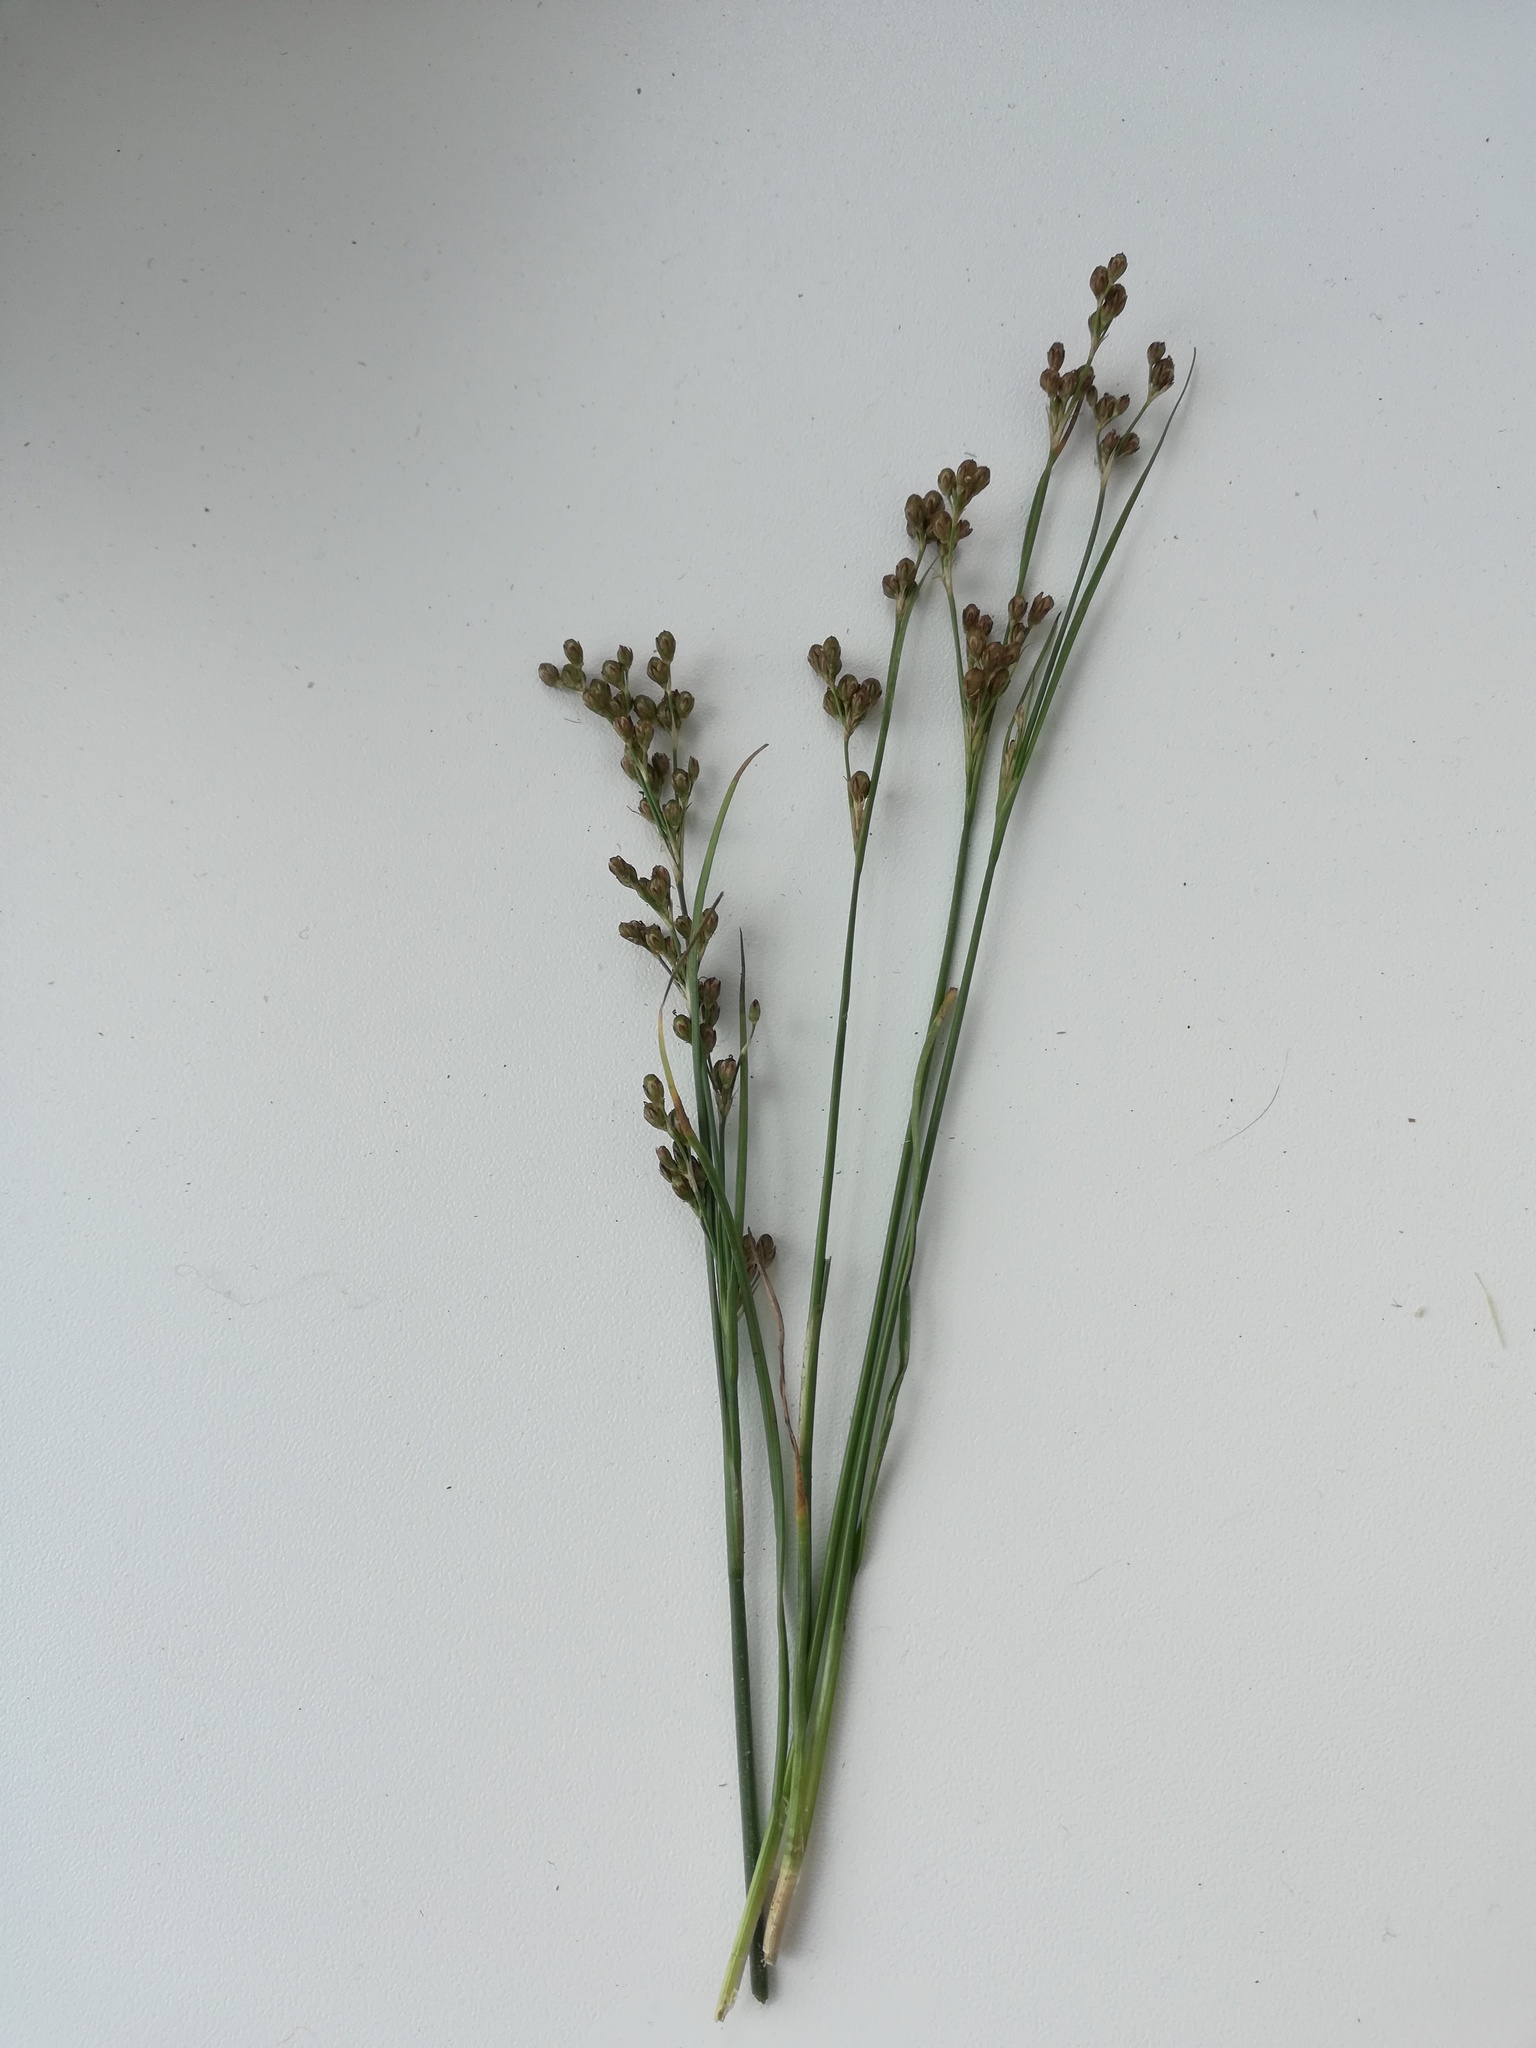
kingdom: Plantae
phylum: Tracheophyta
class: Liliopsida
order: Poales
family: Juncaceae
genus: Juncus
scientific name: Juncus compressus
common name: Round-fruited rush
